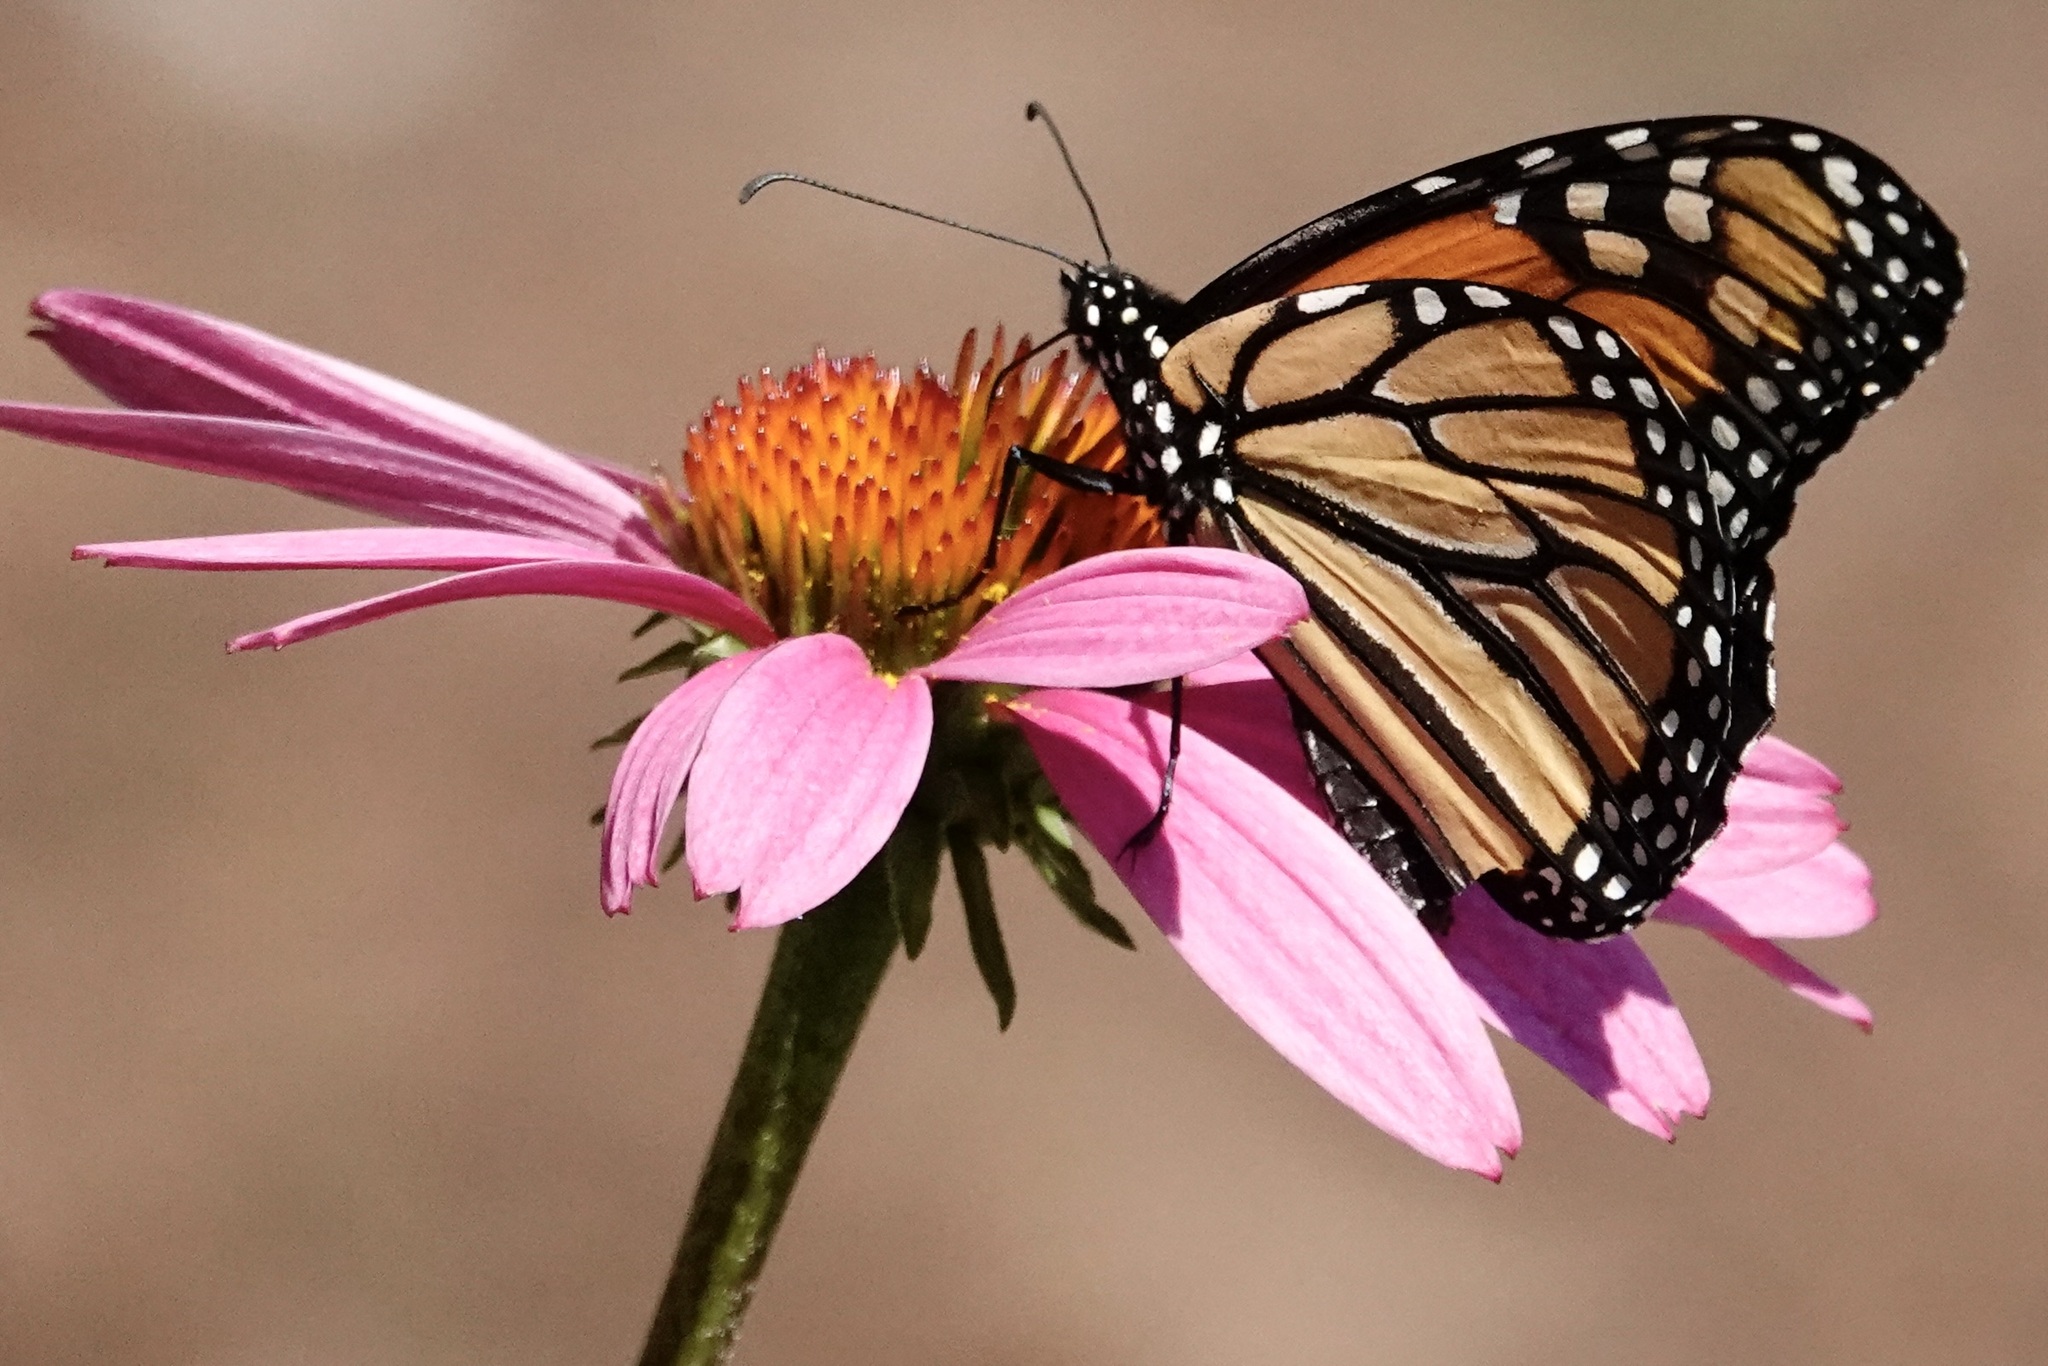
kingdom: Animalia
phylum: Arthropoda
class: Insecta
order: Lepidoptera
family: Nymphalidae
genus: Danaus
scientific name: Danaus plexippus
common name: Monarch
